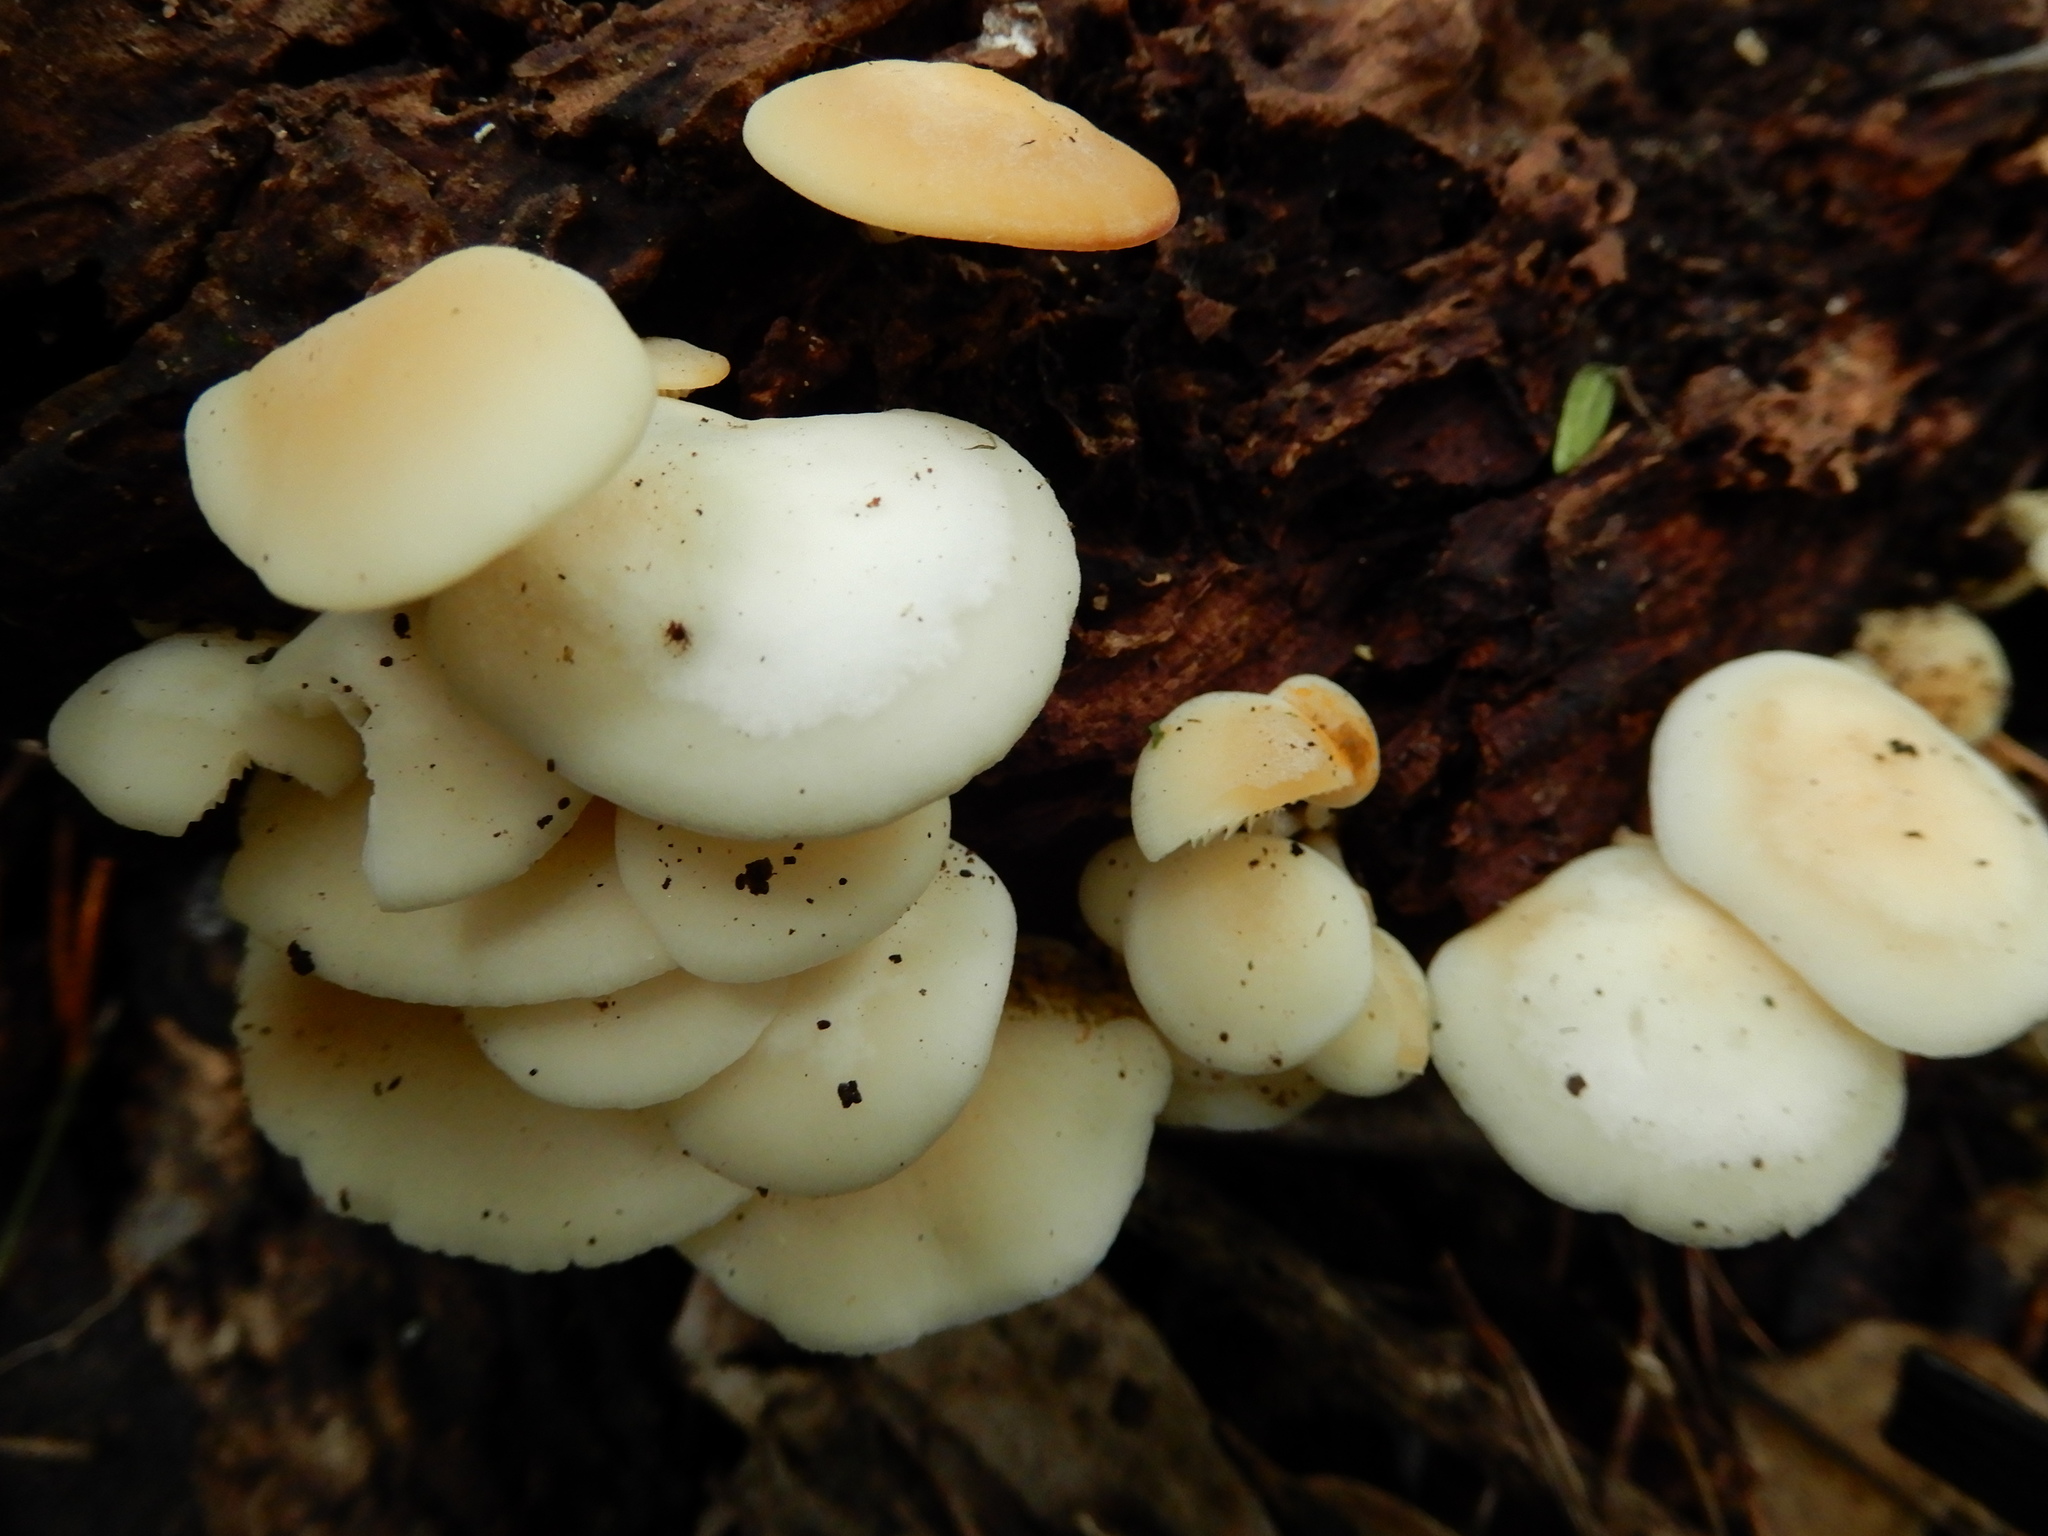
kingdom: Fungi
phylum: Basidiomycota
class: Agaricomycetes
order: Agaricales
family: Lyophyllaceae
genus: Ossicaulis
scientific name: Ossicaulis
